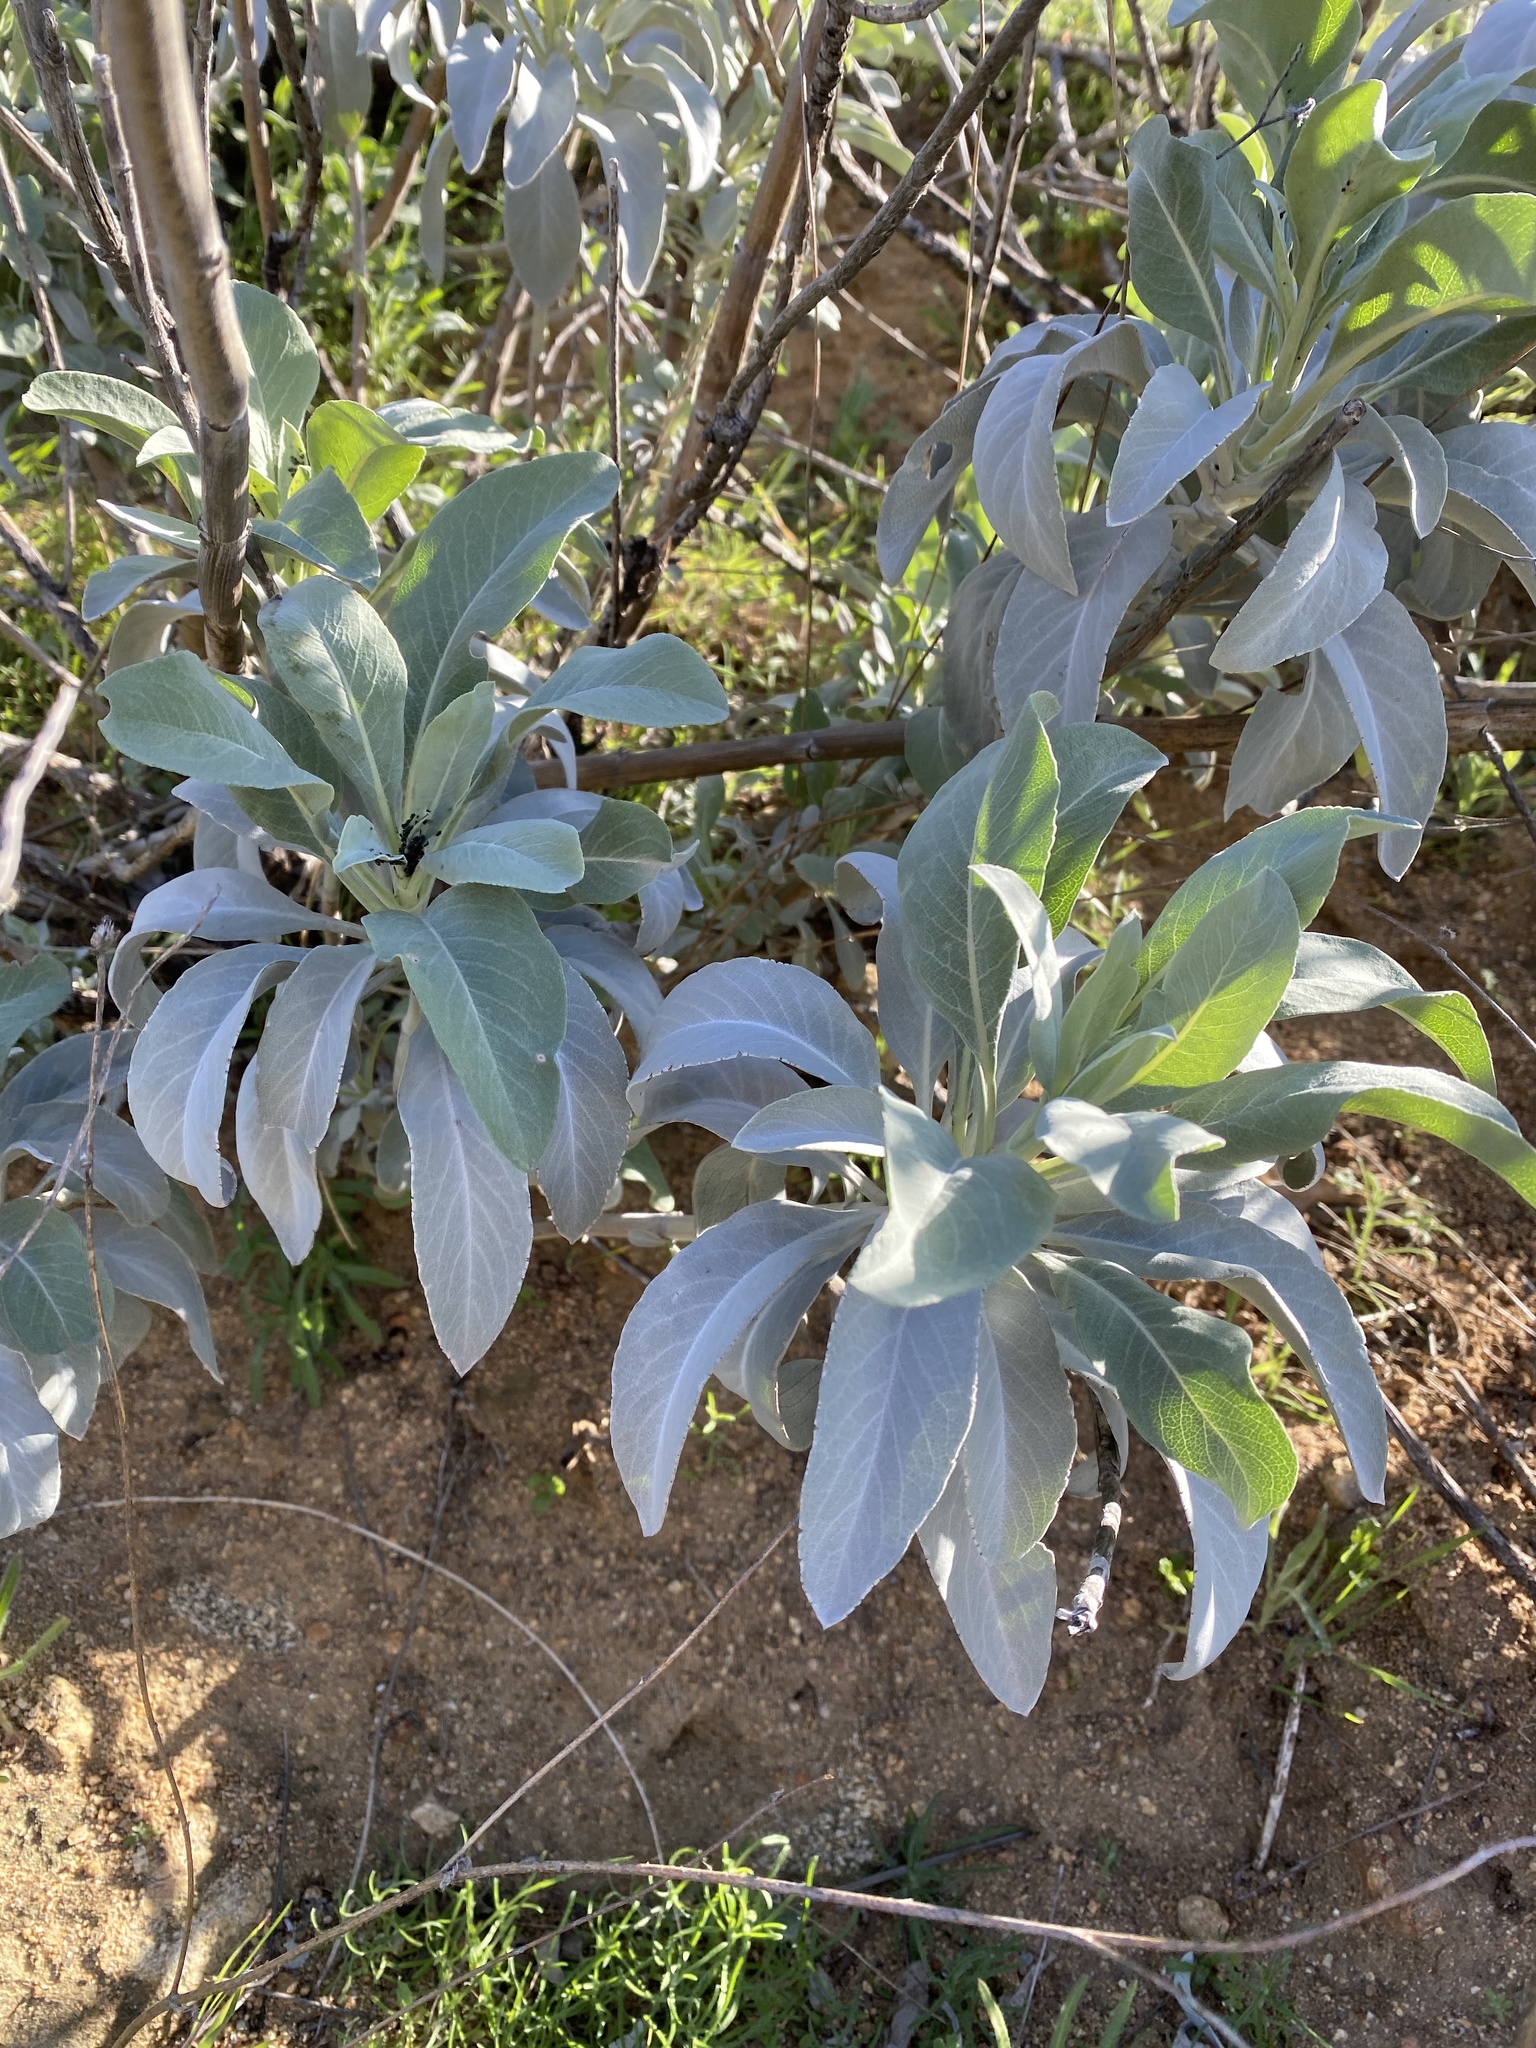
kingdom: Plantae
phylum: Tracheophyta
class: Magnoliopsida
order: Lamiales
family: Lamiaceae
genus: Salvia
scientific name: Salvia apiana
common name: White sage
